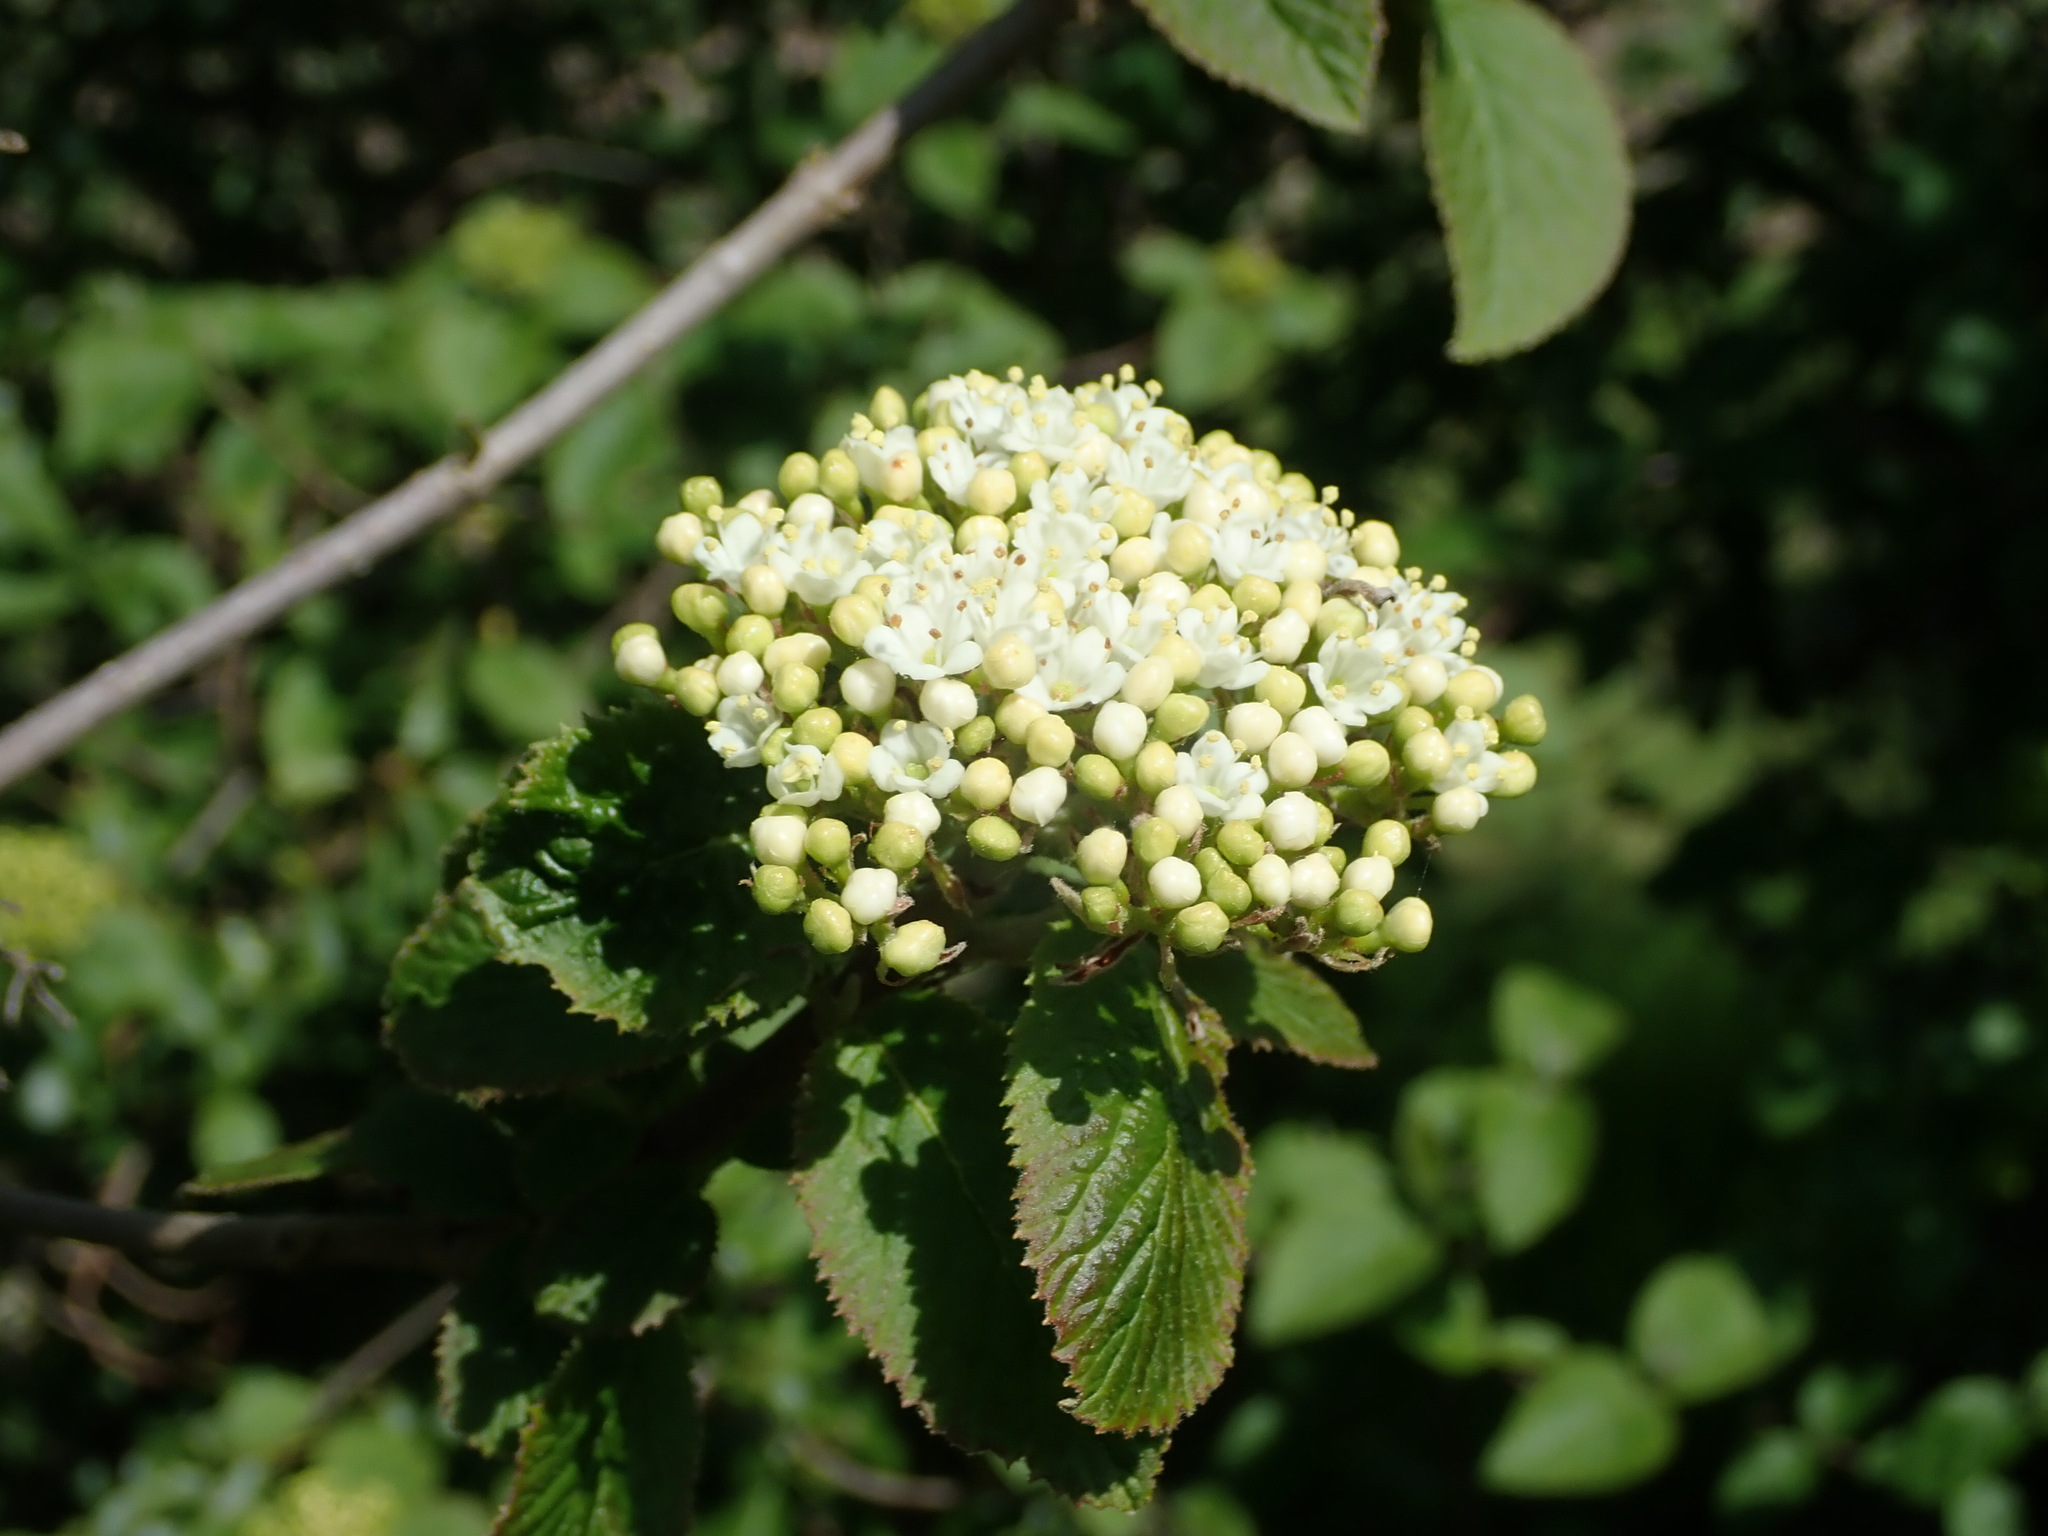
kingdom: Plantae
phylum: Tracheophyta
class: Magnoliopsida
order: Dipsacales
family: Viburnaceae
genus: Viburnum
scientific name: Viburnum lantana
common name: Wayfaring tree
